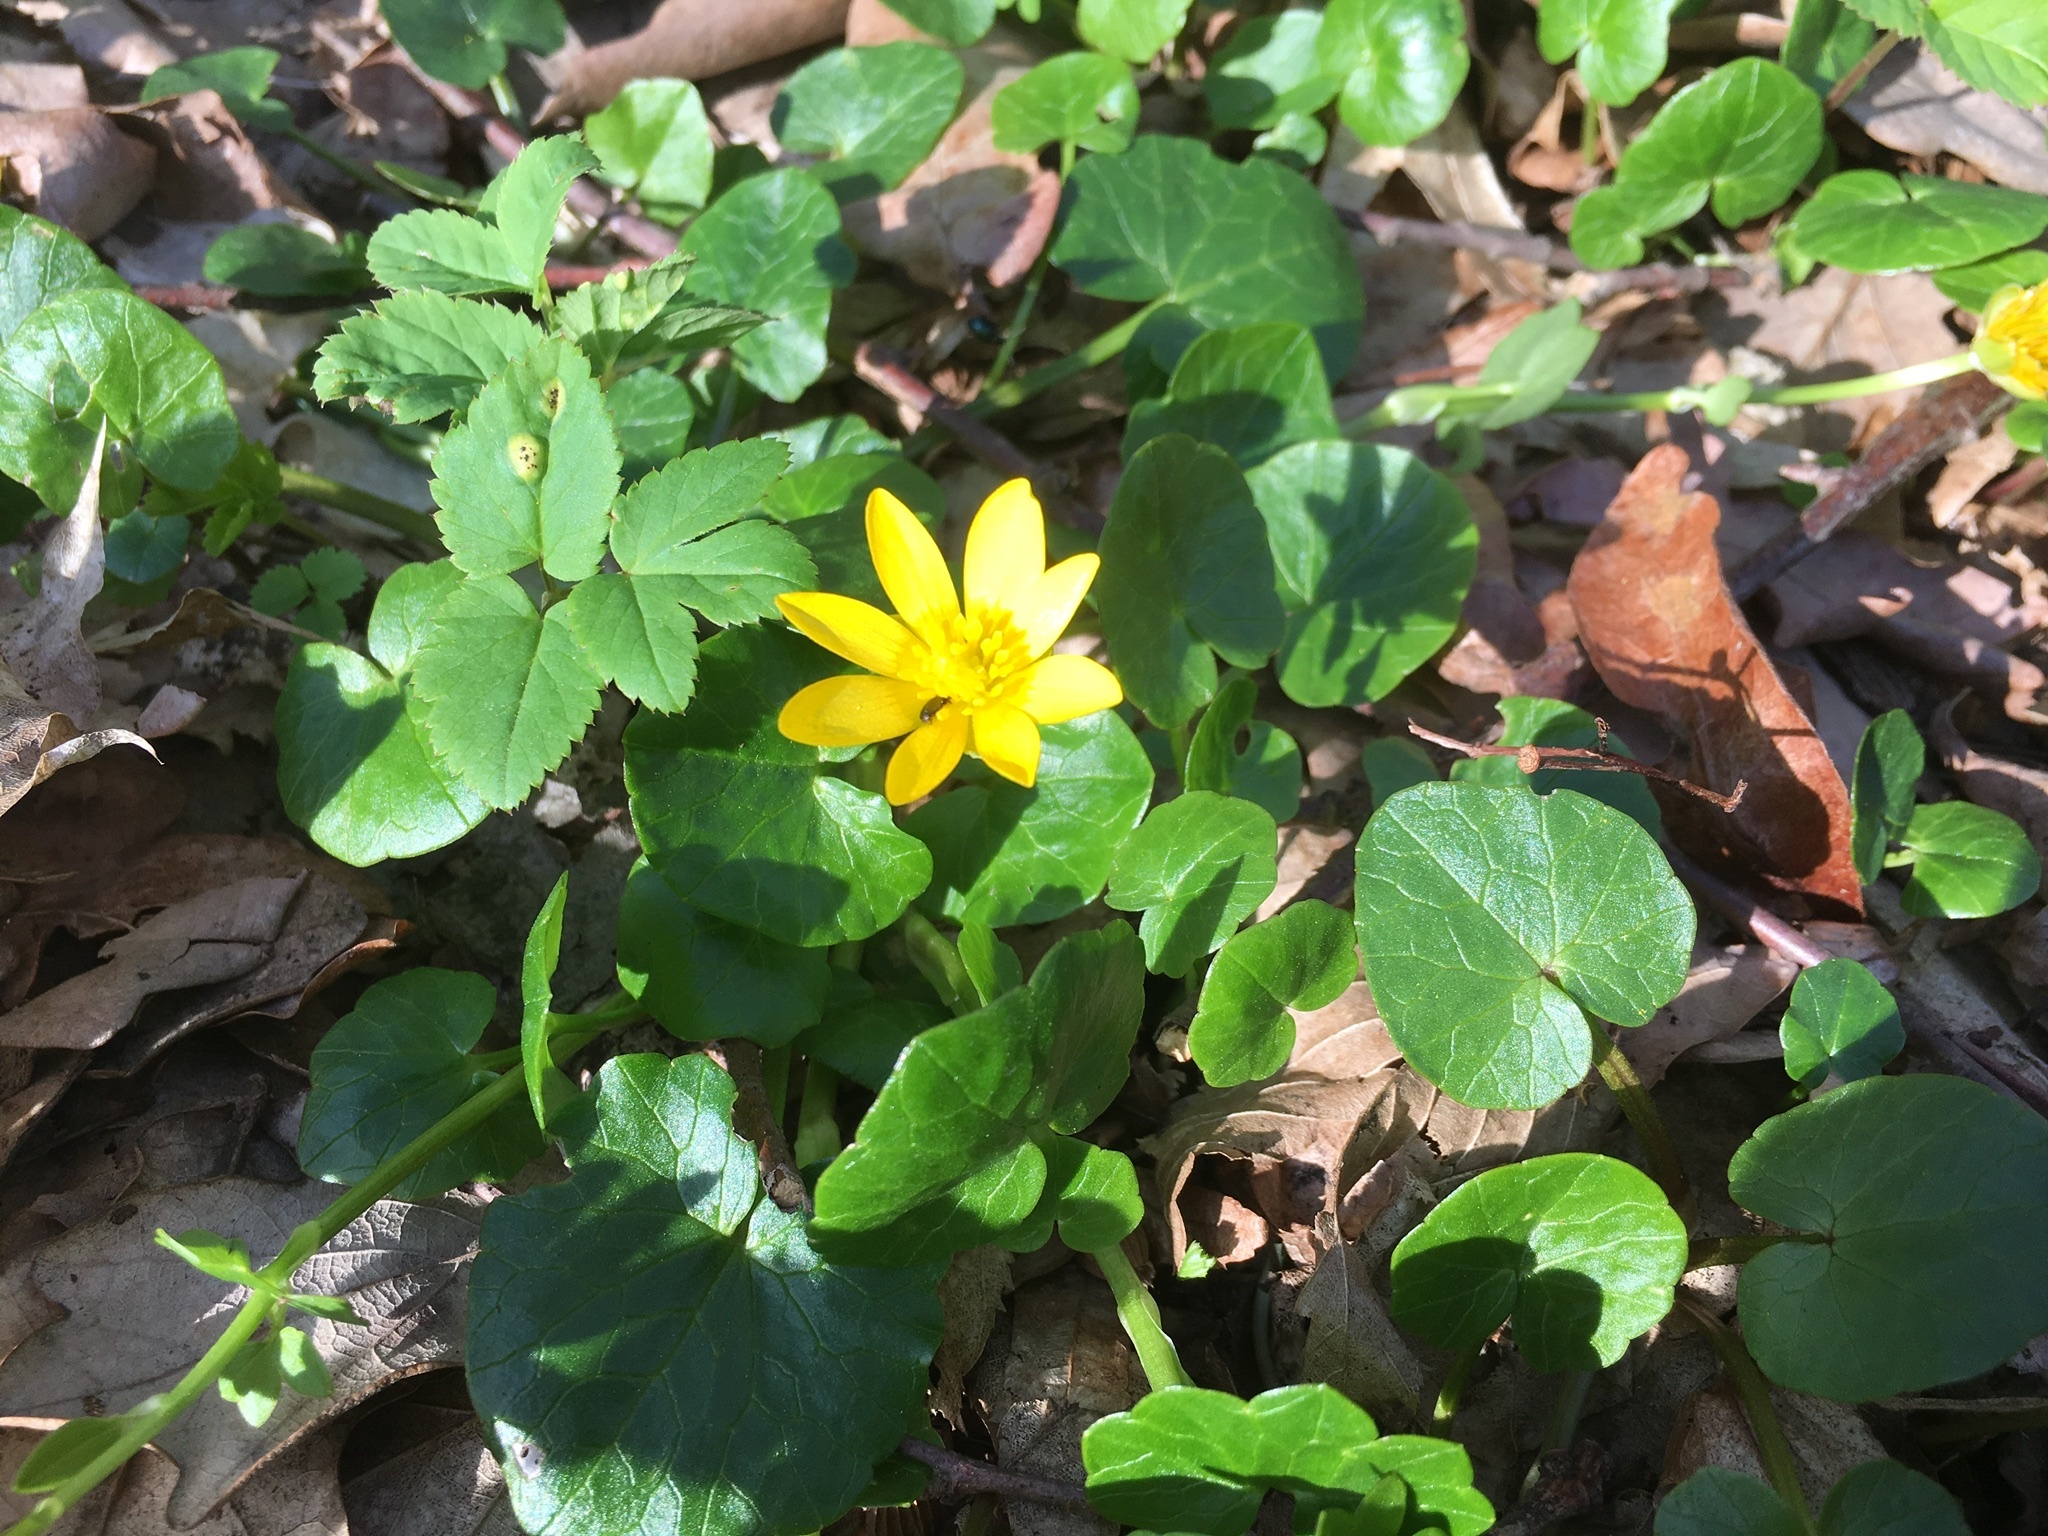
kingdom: Plantae
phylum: Tracheophyta
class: Magnoliopsida
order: Ranunculales
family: Ranunculaceae
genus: Ficaria
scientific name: Ficaria verna
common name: Lesser celandine
